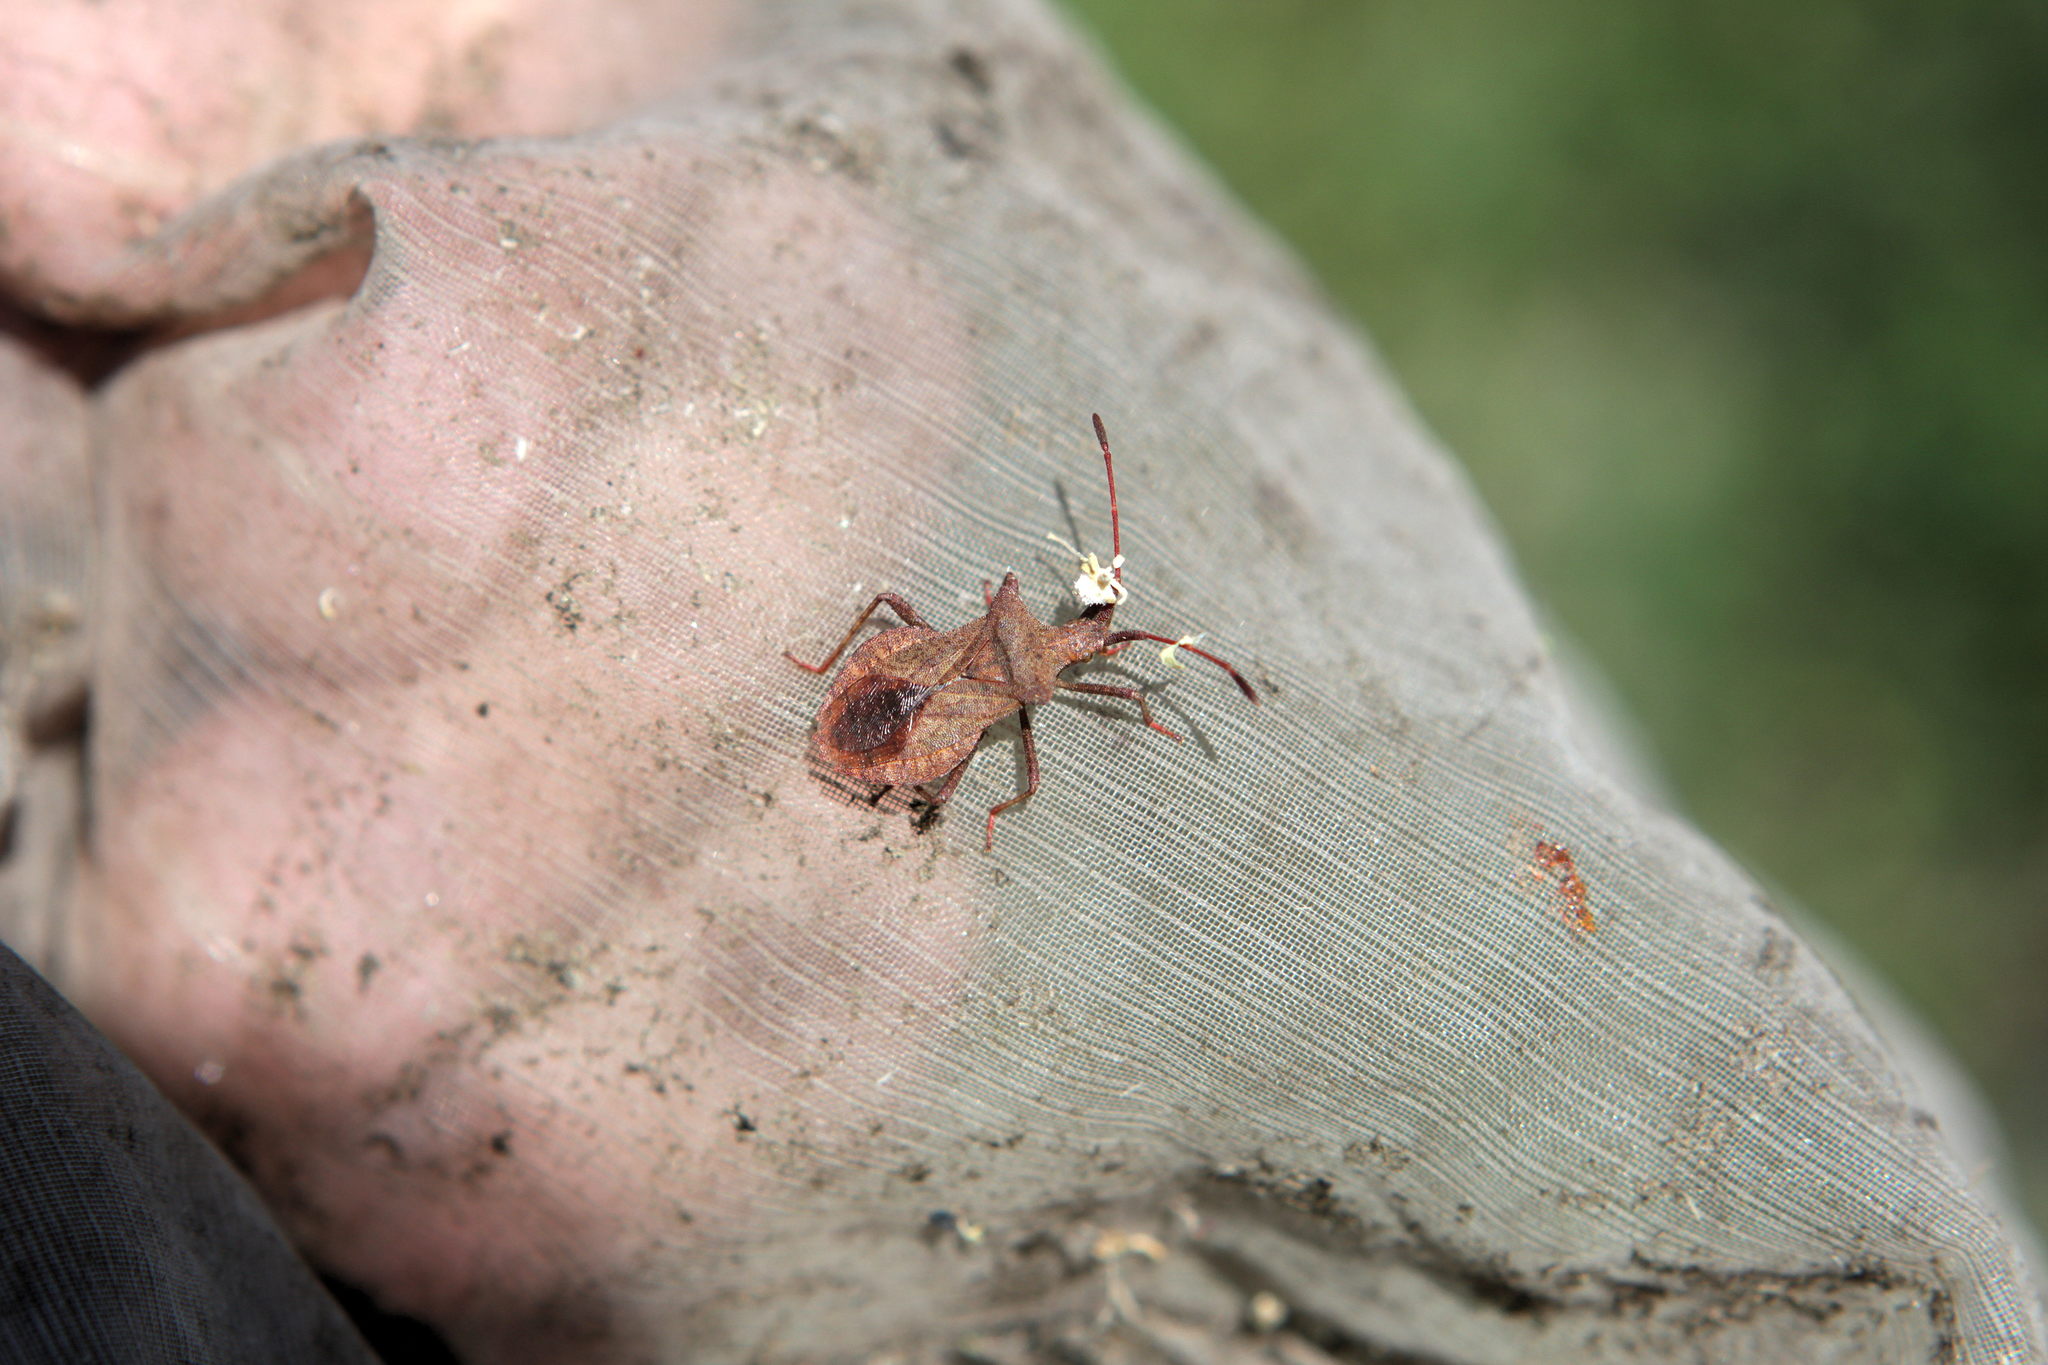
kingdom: Animalia
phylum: Arthropoda
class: Insecta
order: Hemiptera
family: Coreidae
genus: Coreus
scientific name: Coreus marginatus
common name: Dock bug
